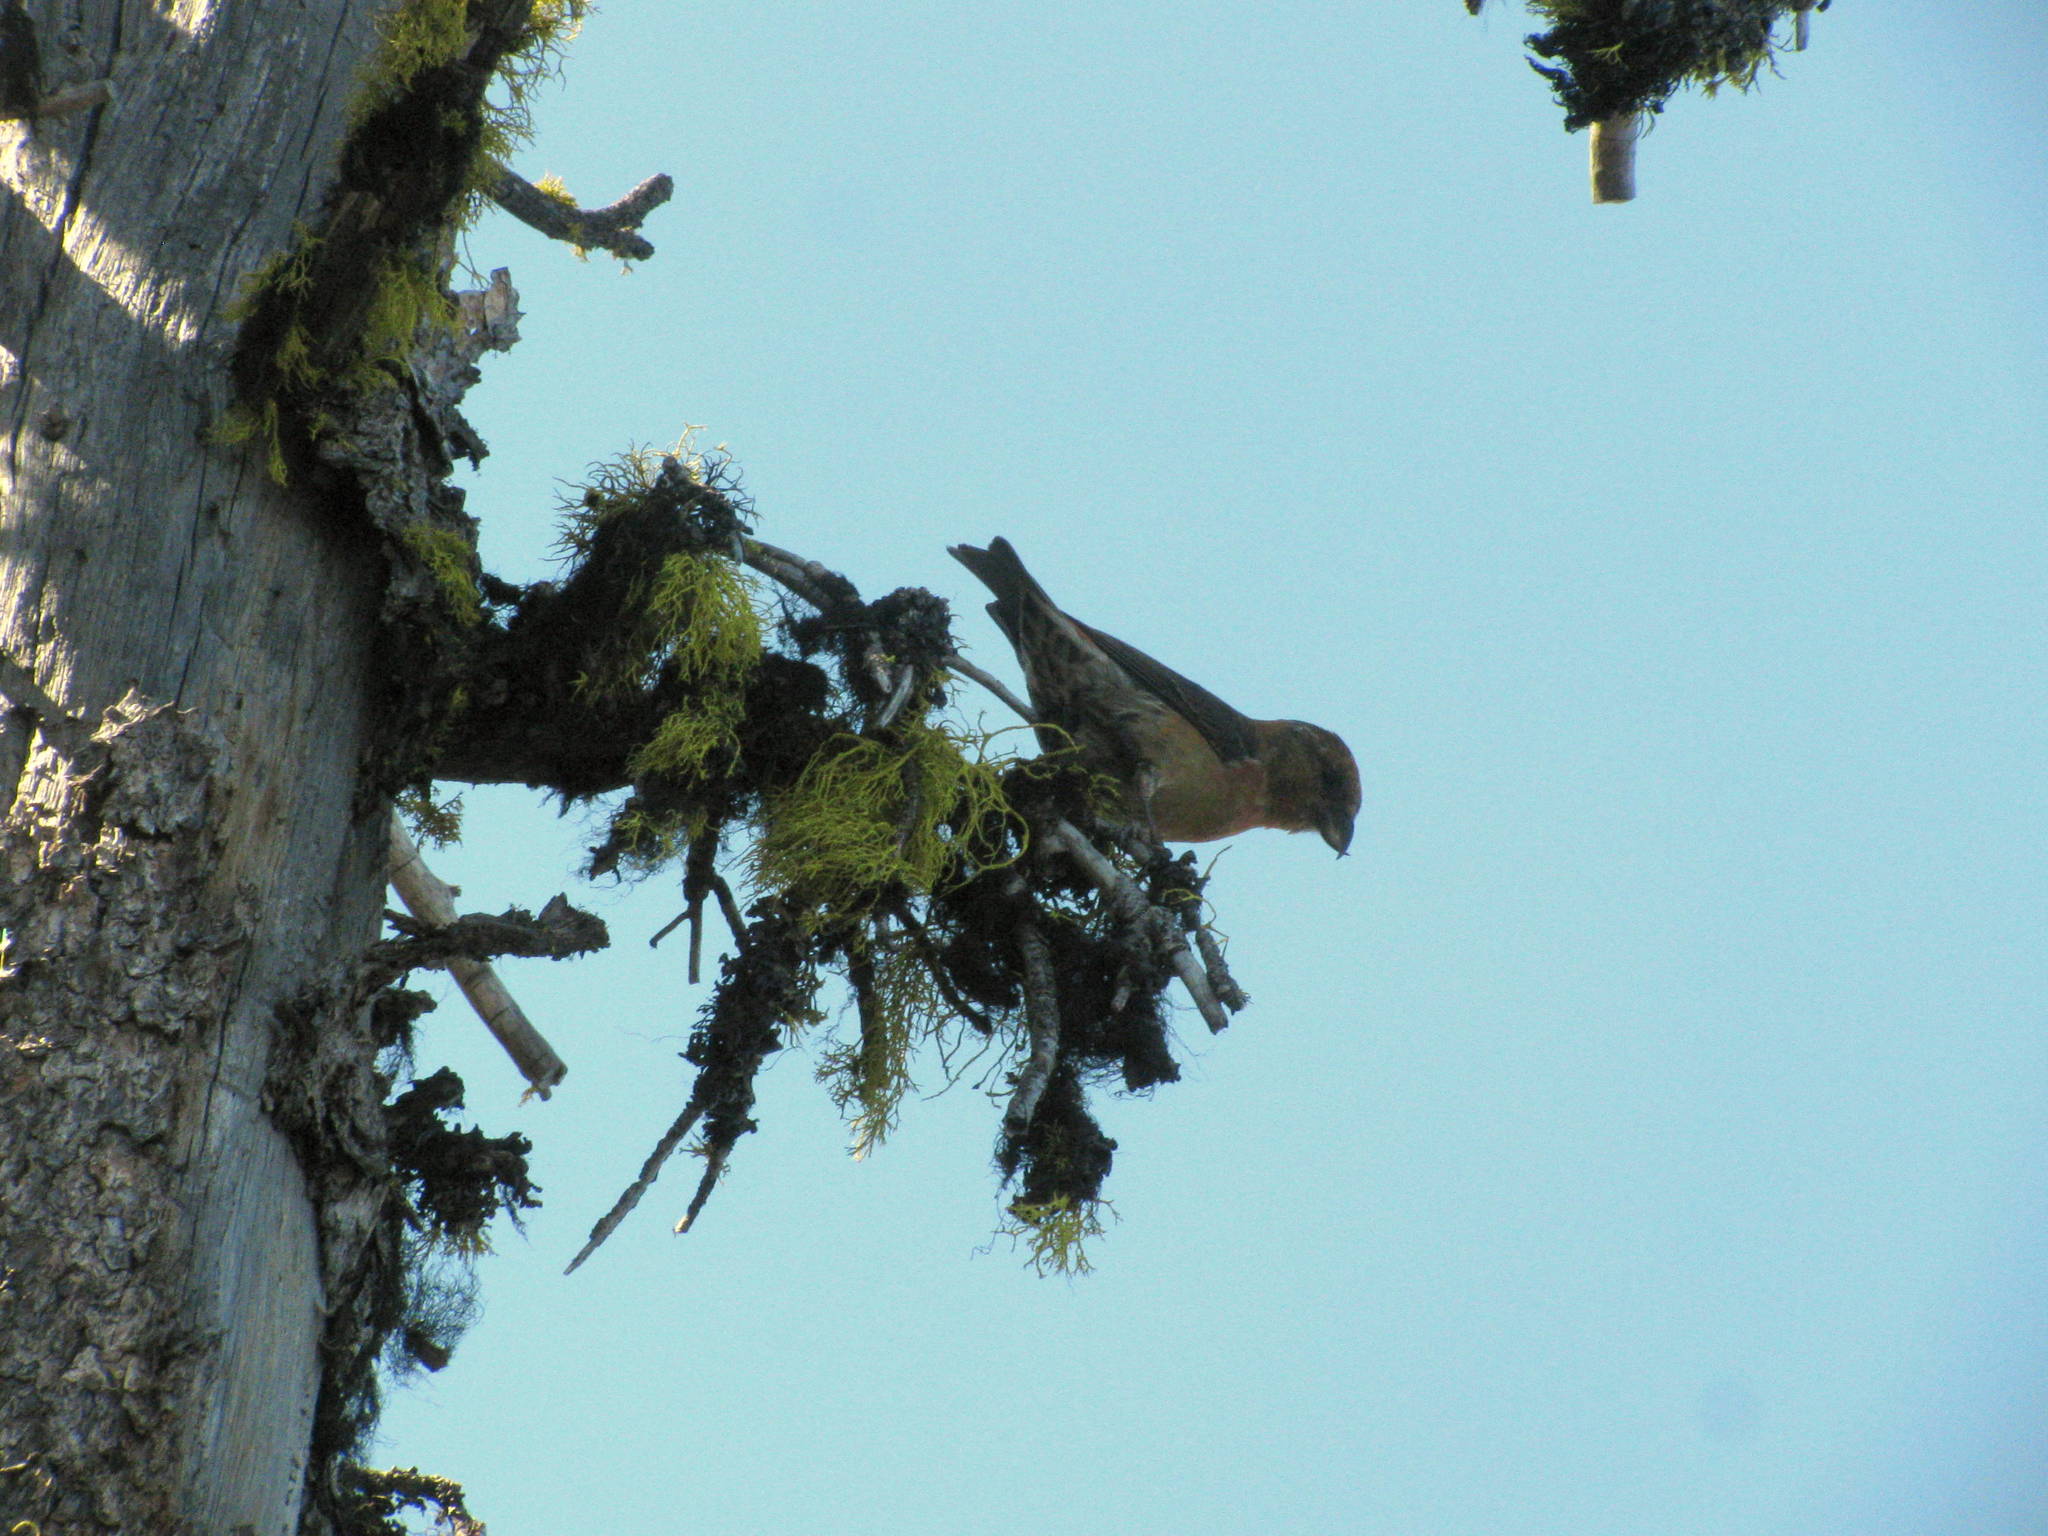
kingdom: Animalia
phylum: Chordata
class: Aves
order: Passeriformes
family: Fringillidae
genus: Loxia
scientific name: Loxia curvirostra
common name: Red crossbill
